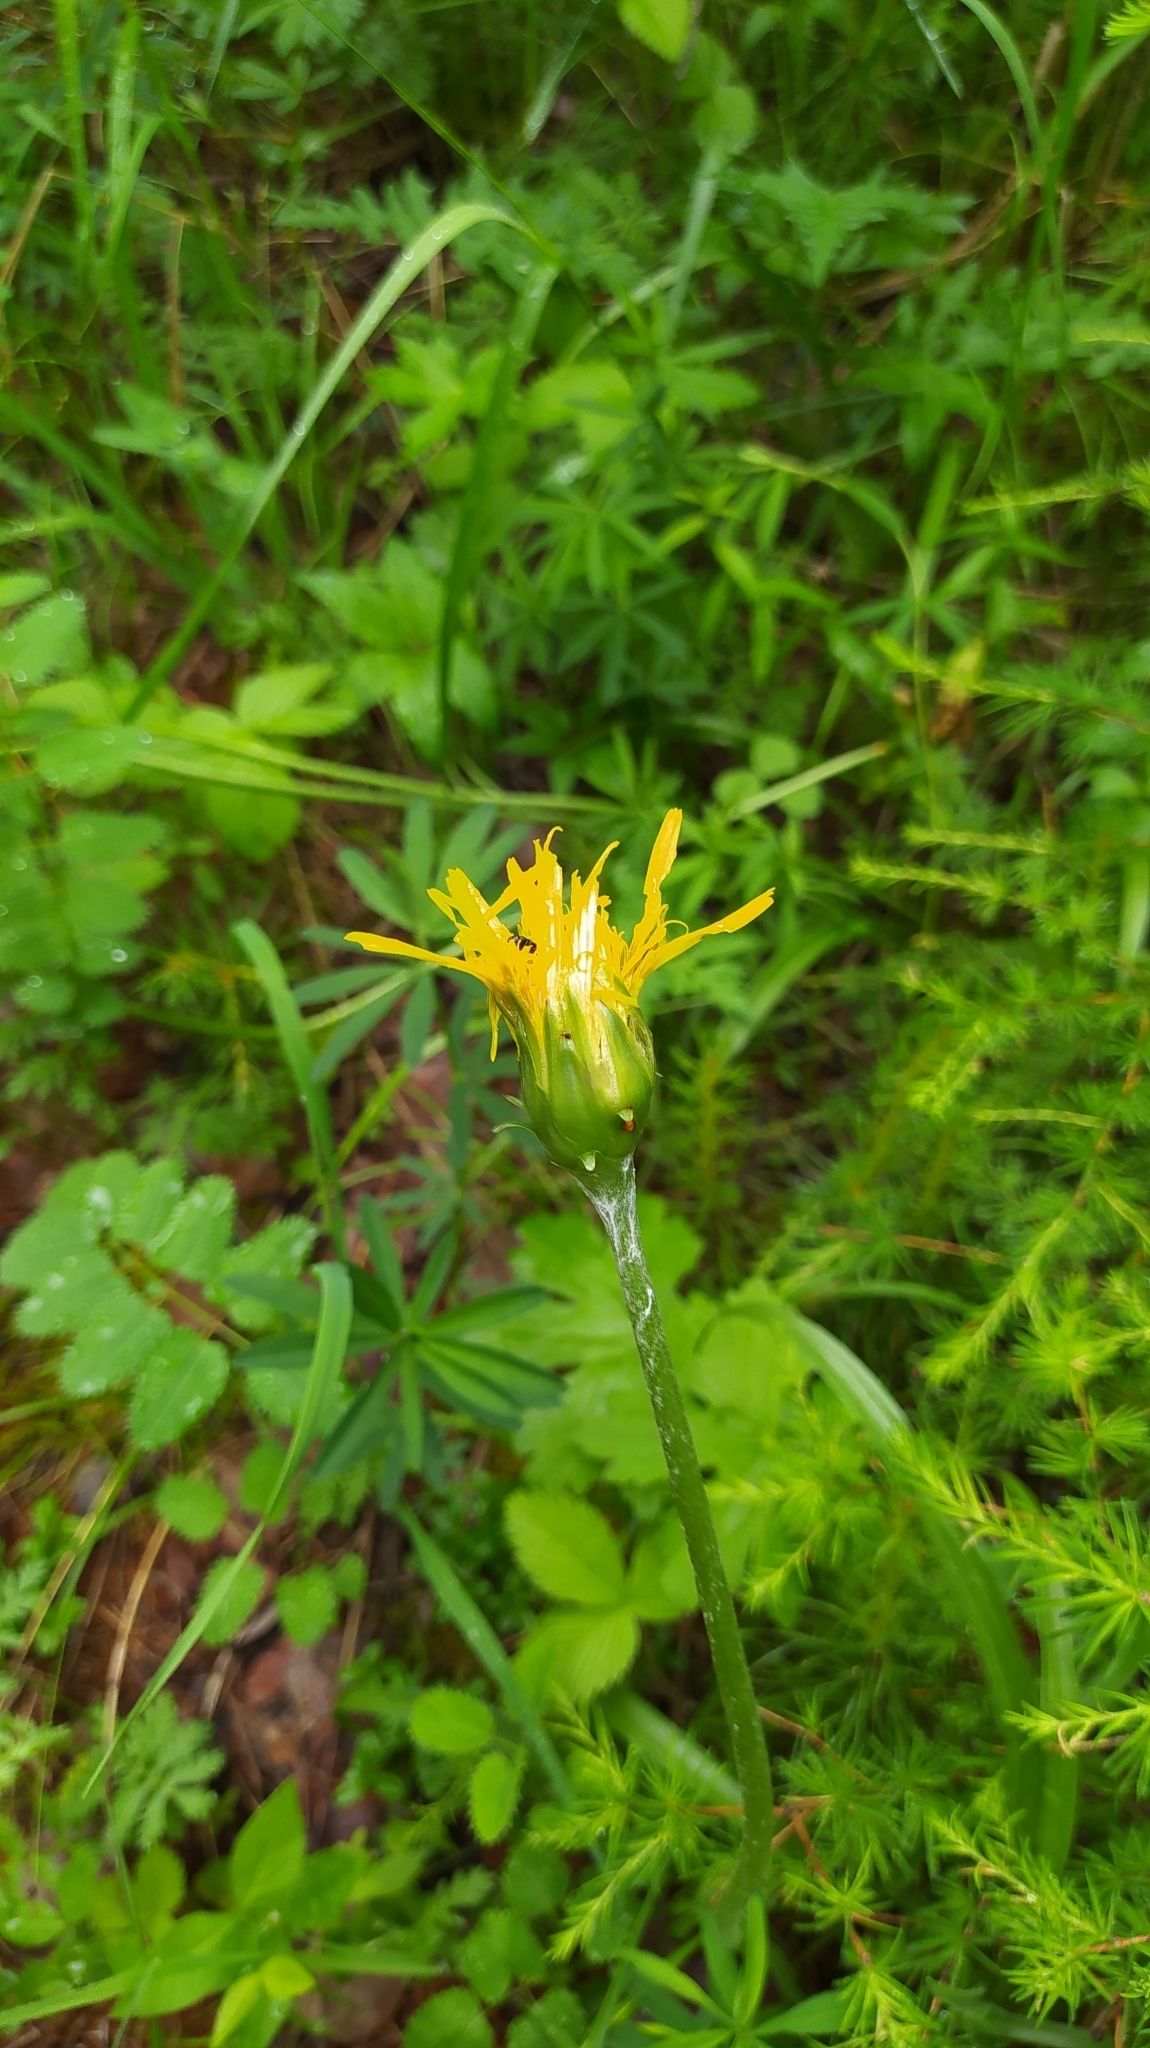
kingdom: Plantae
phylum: Tracheophyta
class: Magnoliopsida
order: Asterales
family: Asteraceae
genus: Scorzonera
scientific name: Scorzonera radiata
